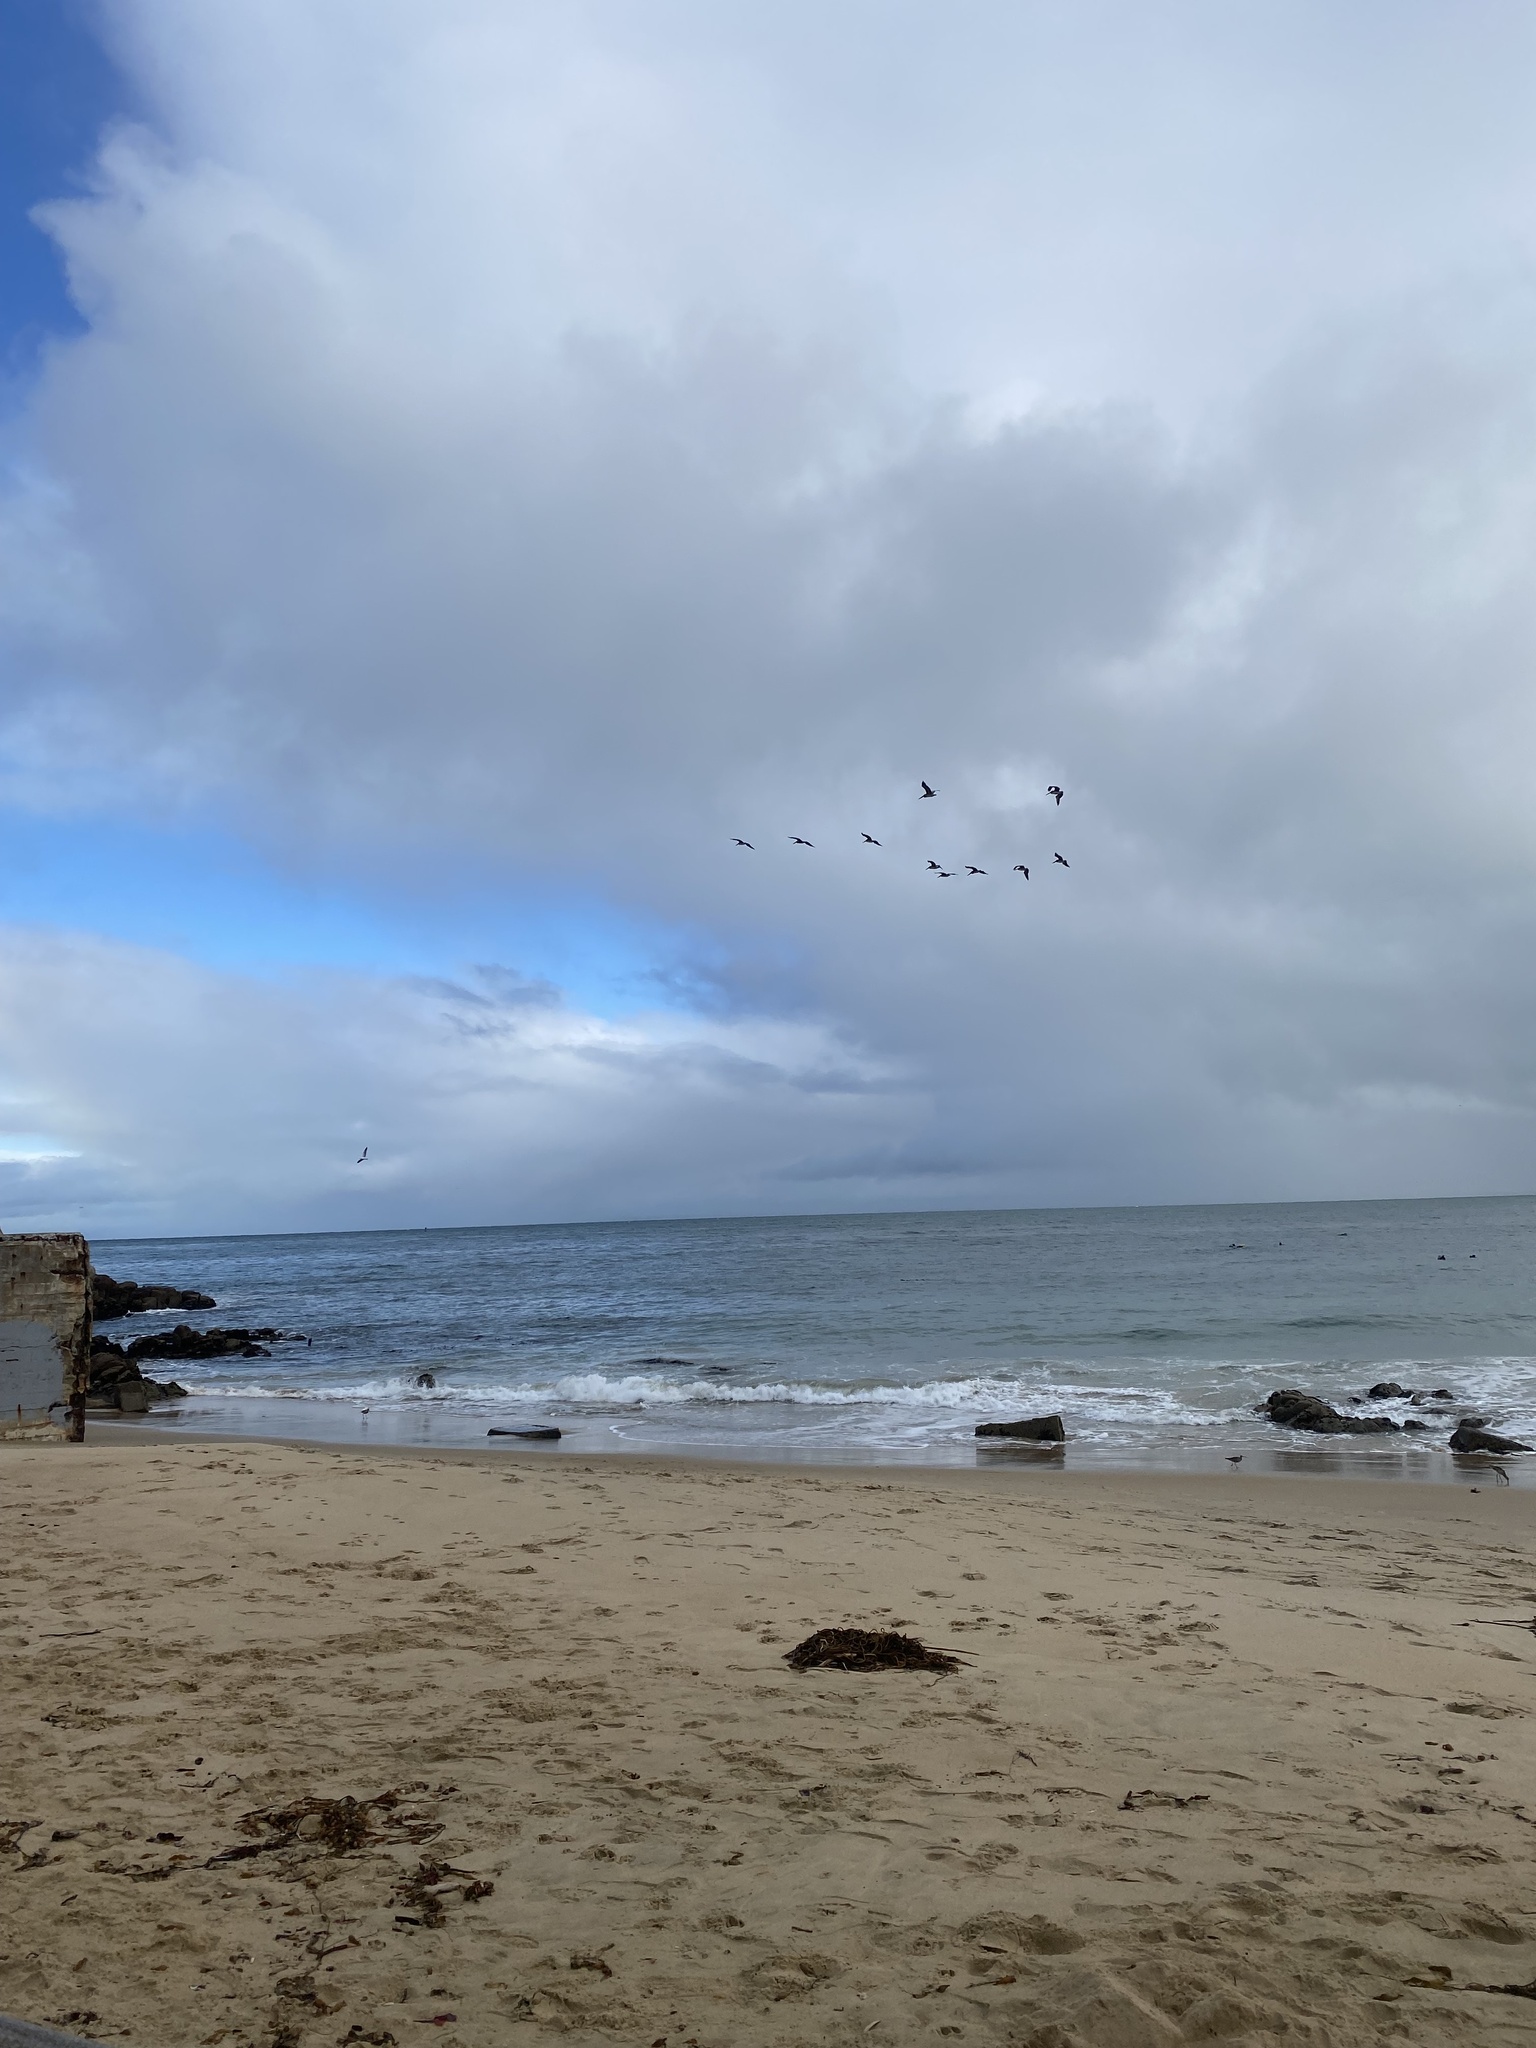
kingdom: Animalia
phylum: Chordata
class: Aves
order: Pelecaniformes
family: Pelecanidae
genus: Pelecanus
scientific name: Pelecanus occidentalis
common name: Brown pelican
